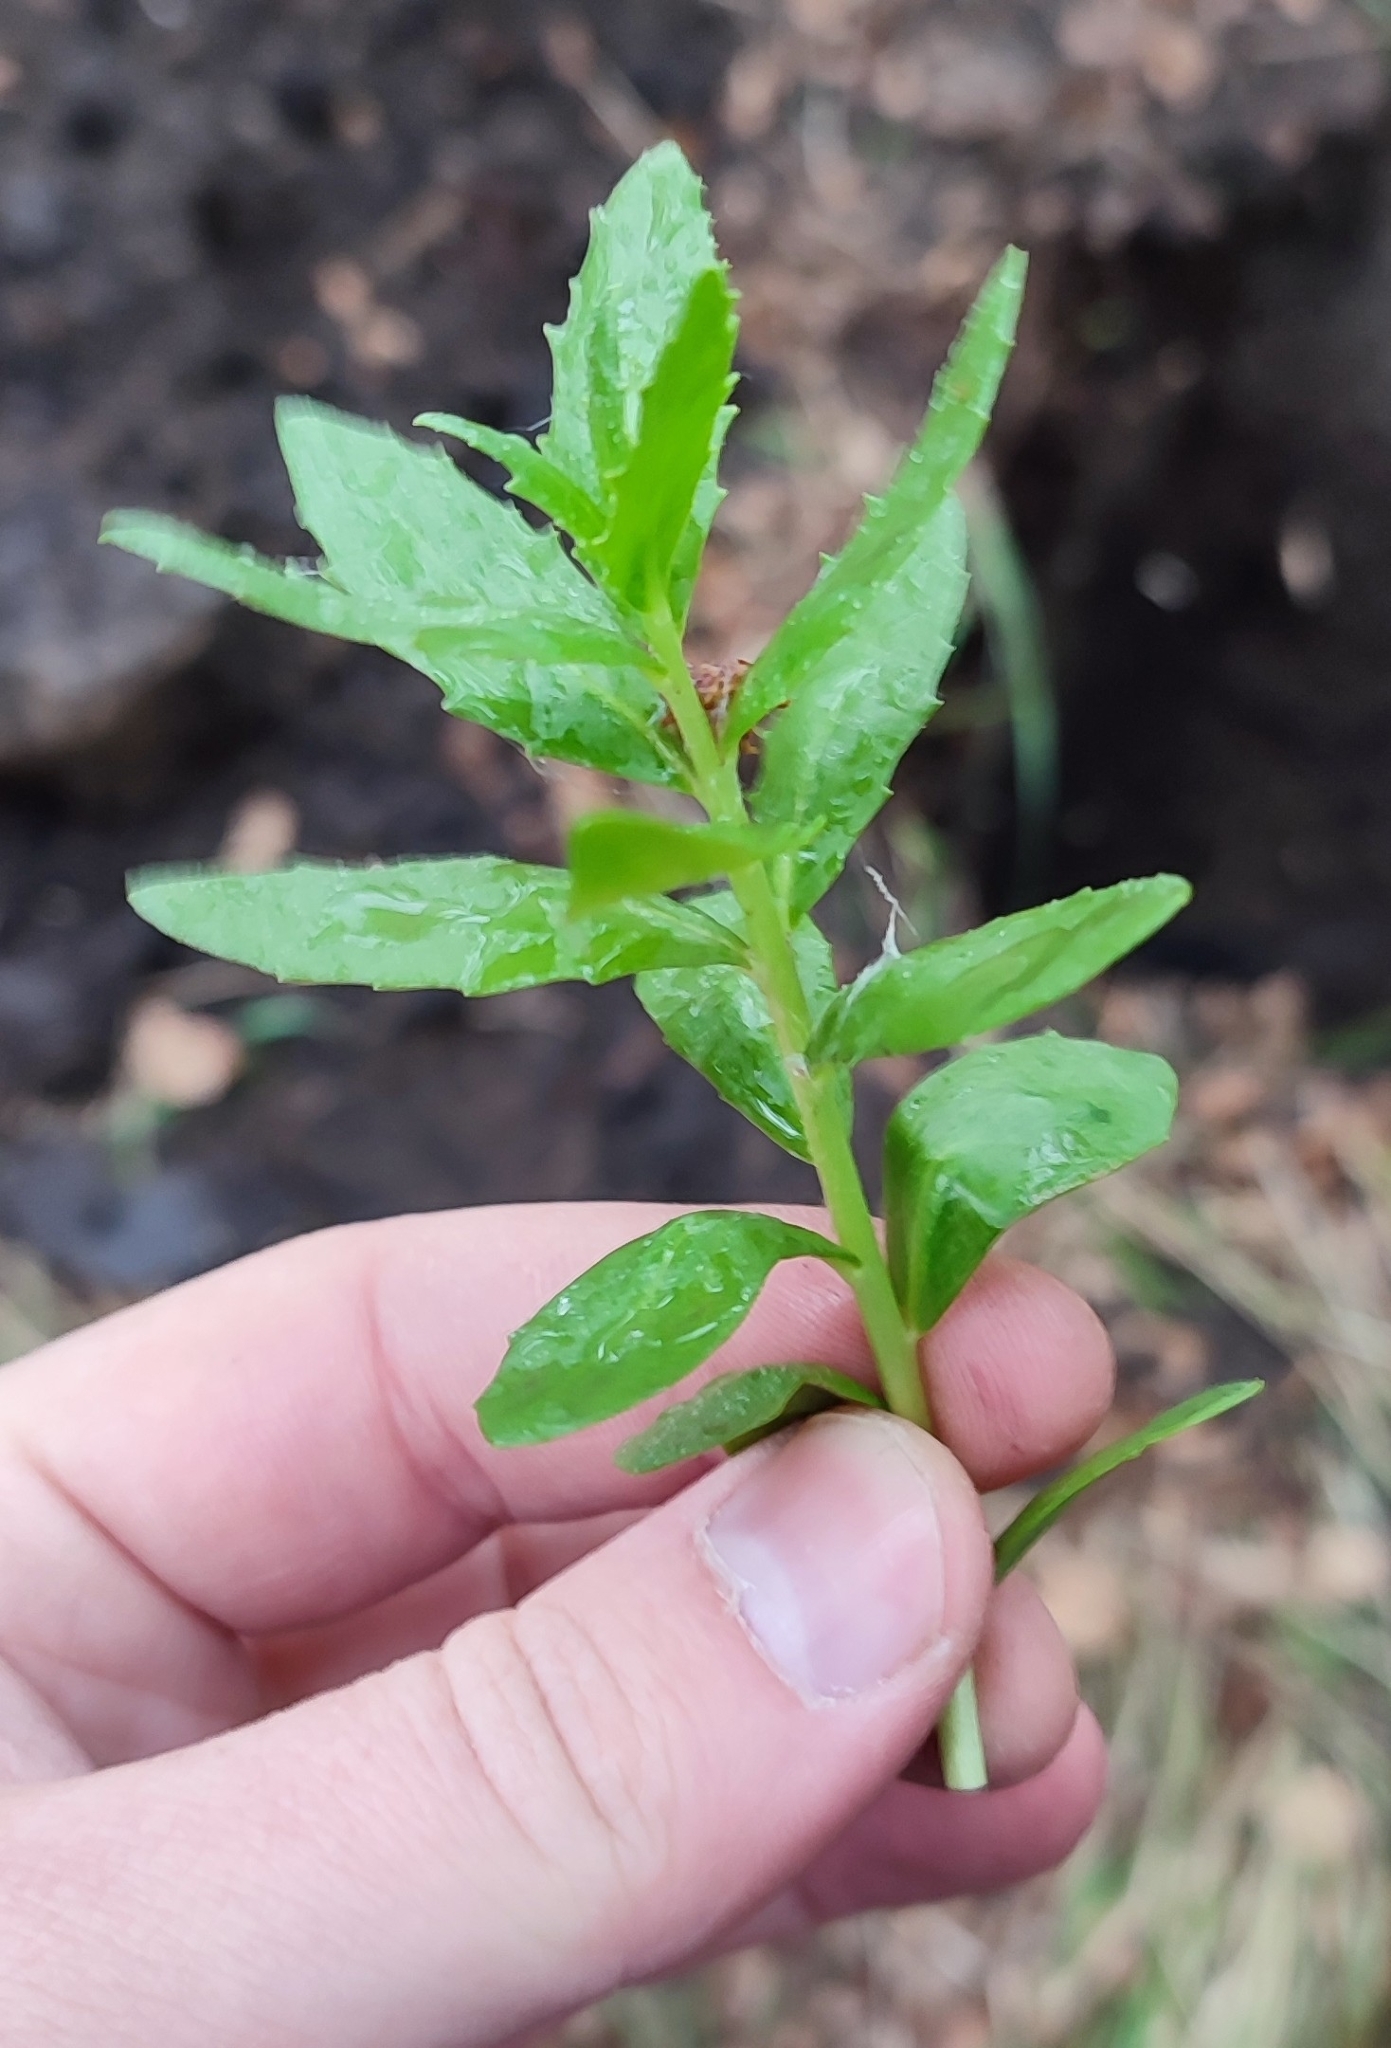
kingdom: Plantae
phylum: Tracheophyta
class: Magnoliopsida
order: Saxifragales
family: Crassulaceae
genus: Hylotelephium
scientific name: Hylotelephium telephium
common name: Live-forever
